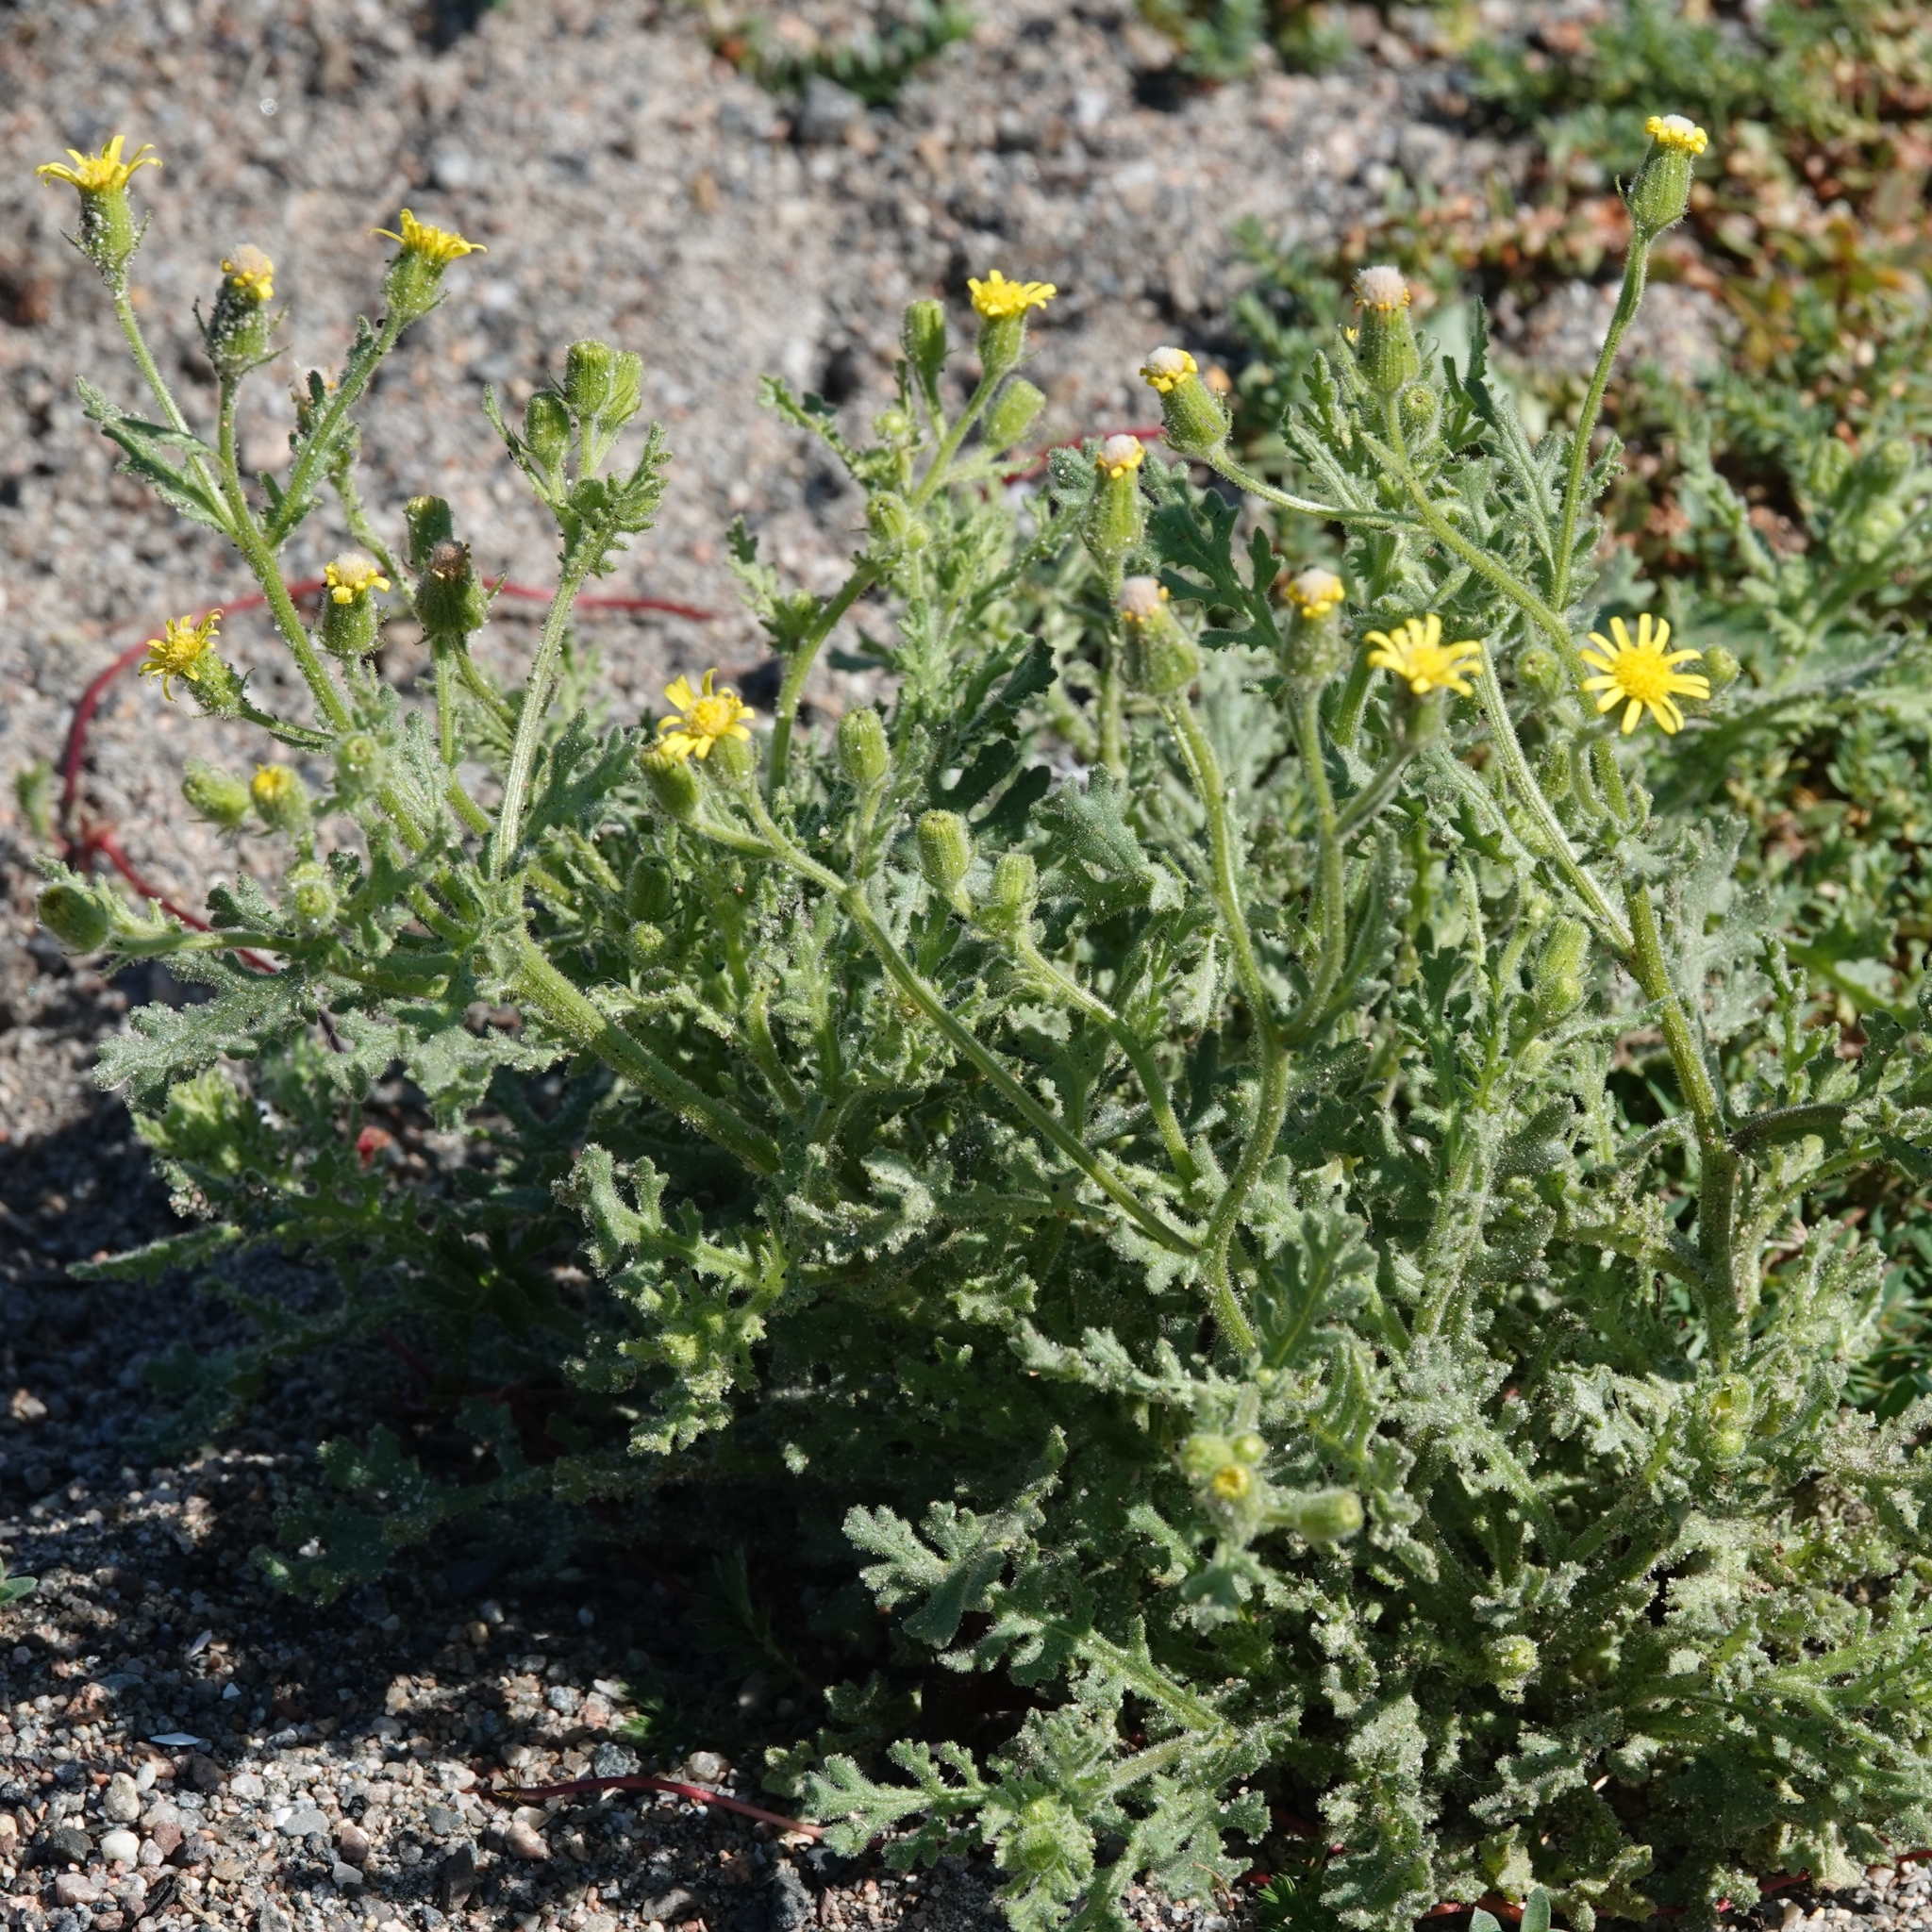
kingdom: Plantae
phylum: Tracheophyta
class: Magnoliopsida
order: Asterales
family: Asteraceae
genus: Senecio
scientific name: Senecio viscosus
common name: Sticky groundsel
